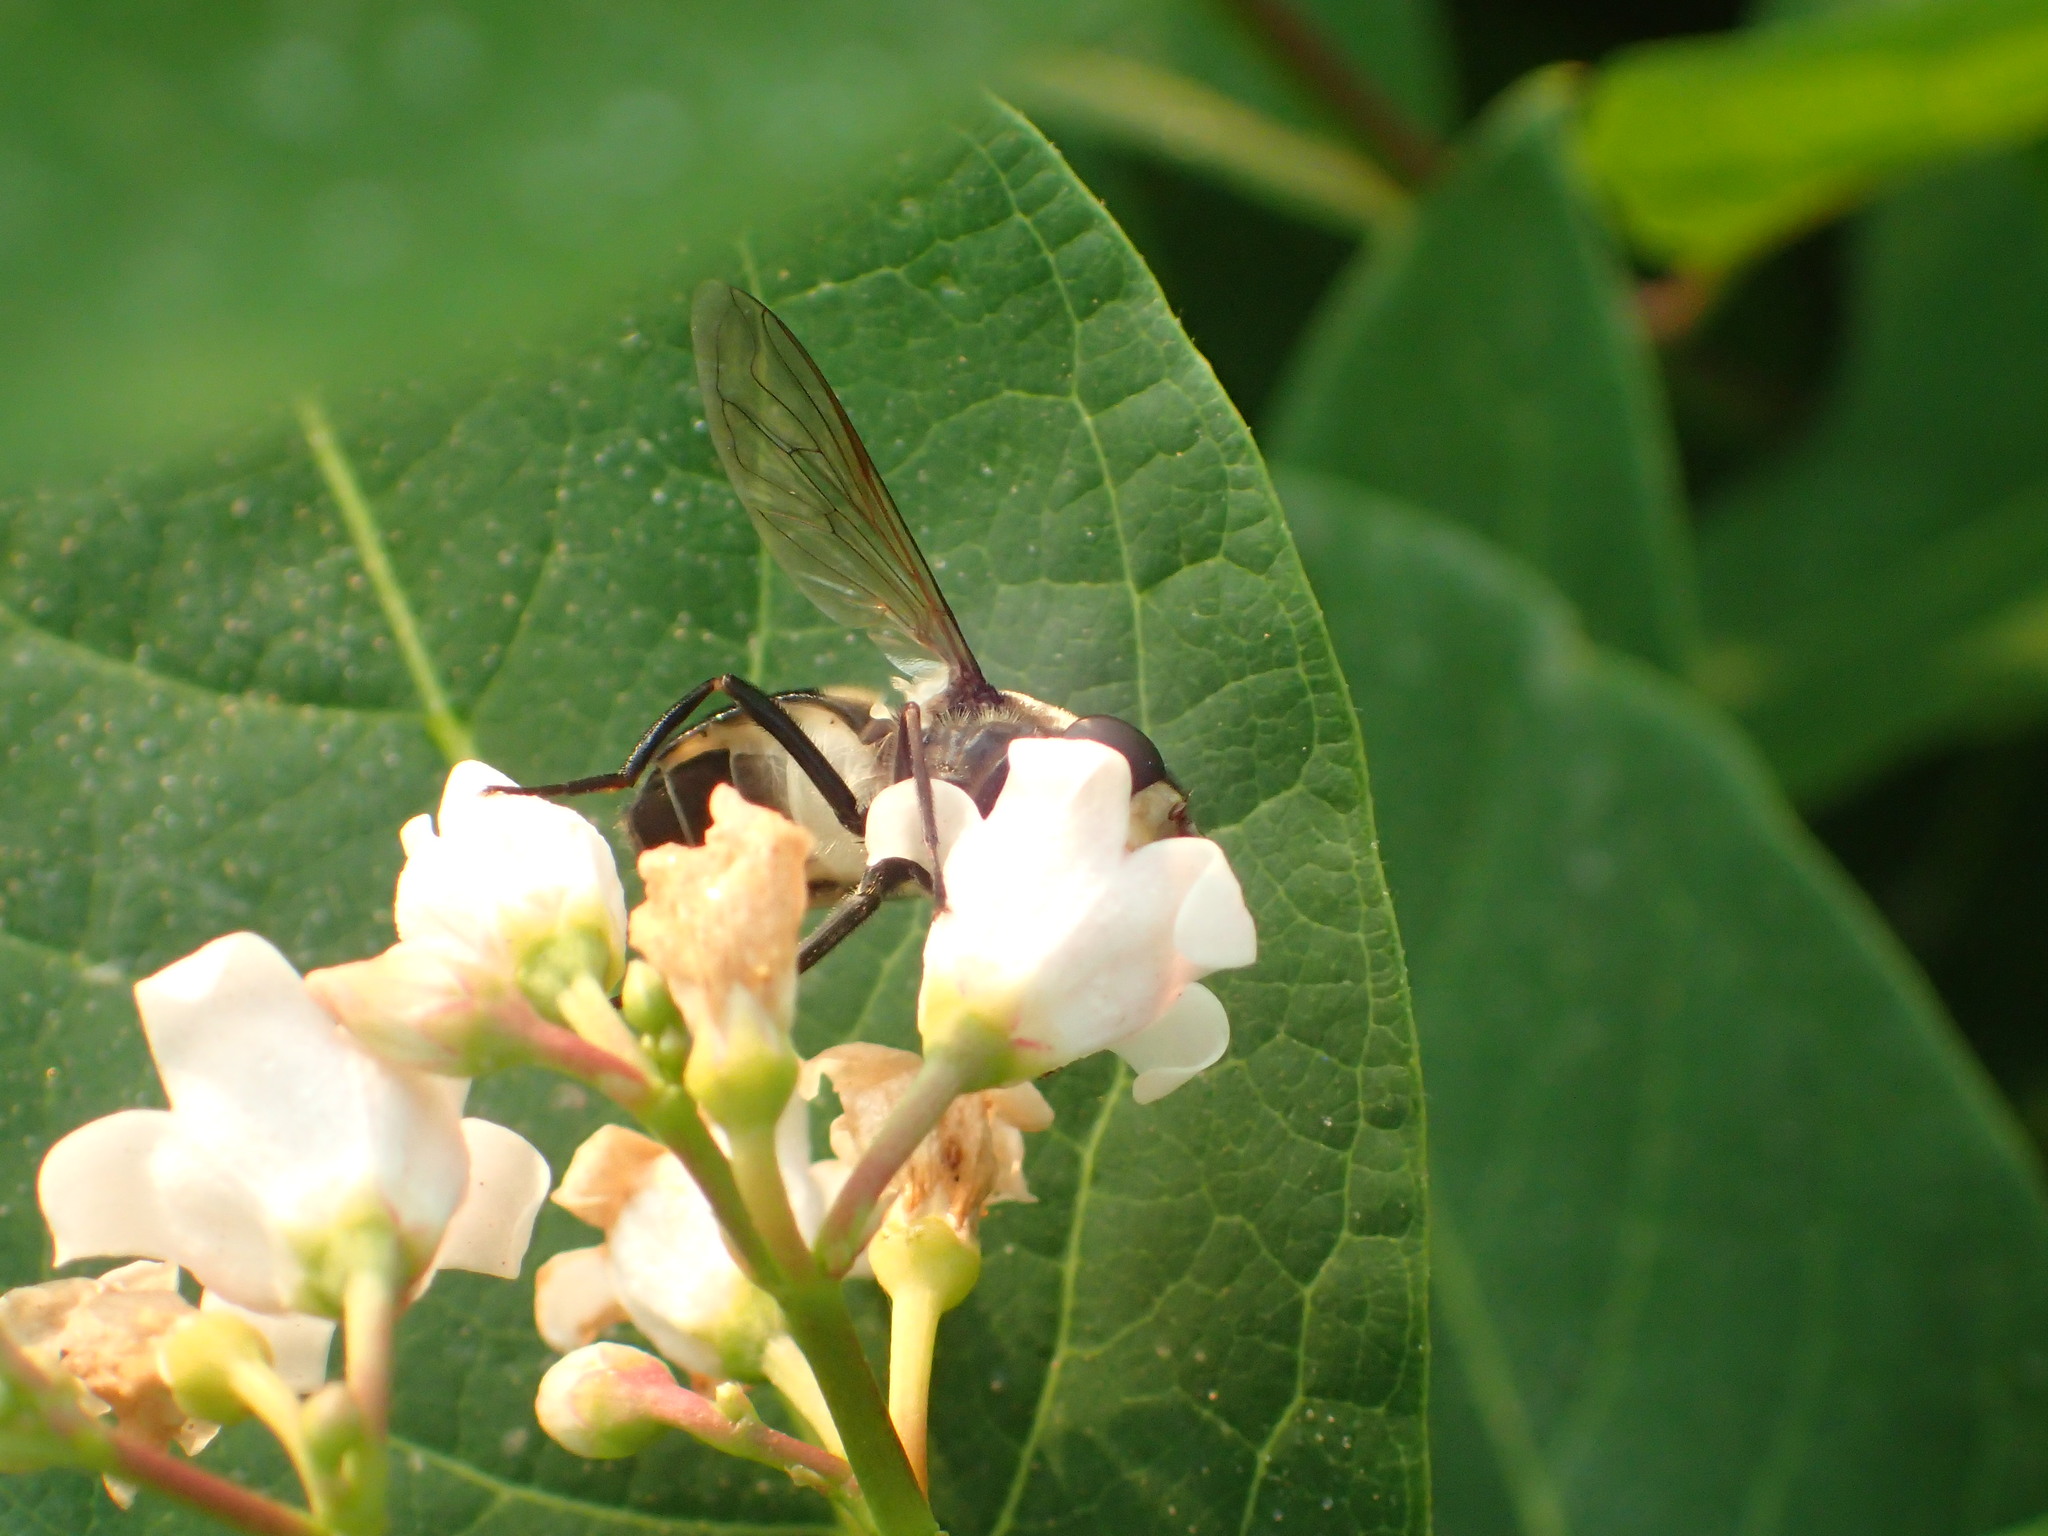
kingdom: Animalia
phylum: Arthropoda
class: Insecta
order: Diptera
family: Syrphidae
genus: Sericomyia
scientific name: Sericomyia lata
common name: White-spotted pond fly
